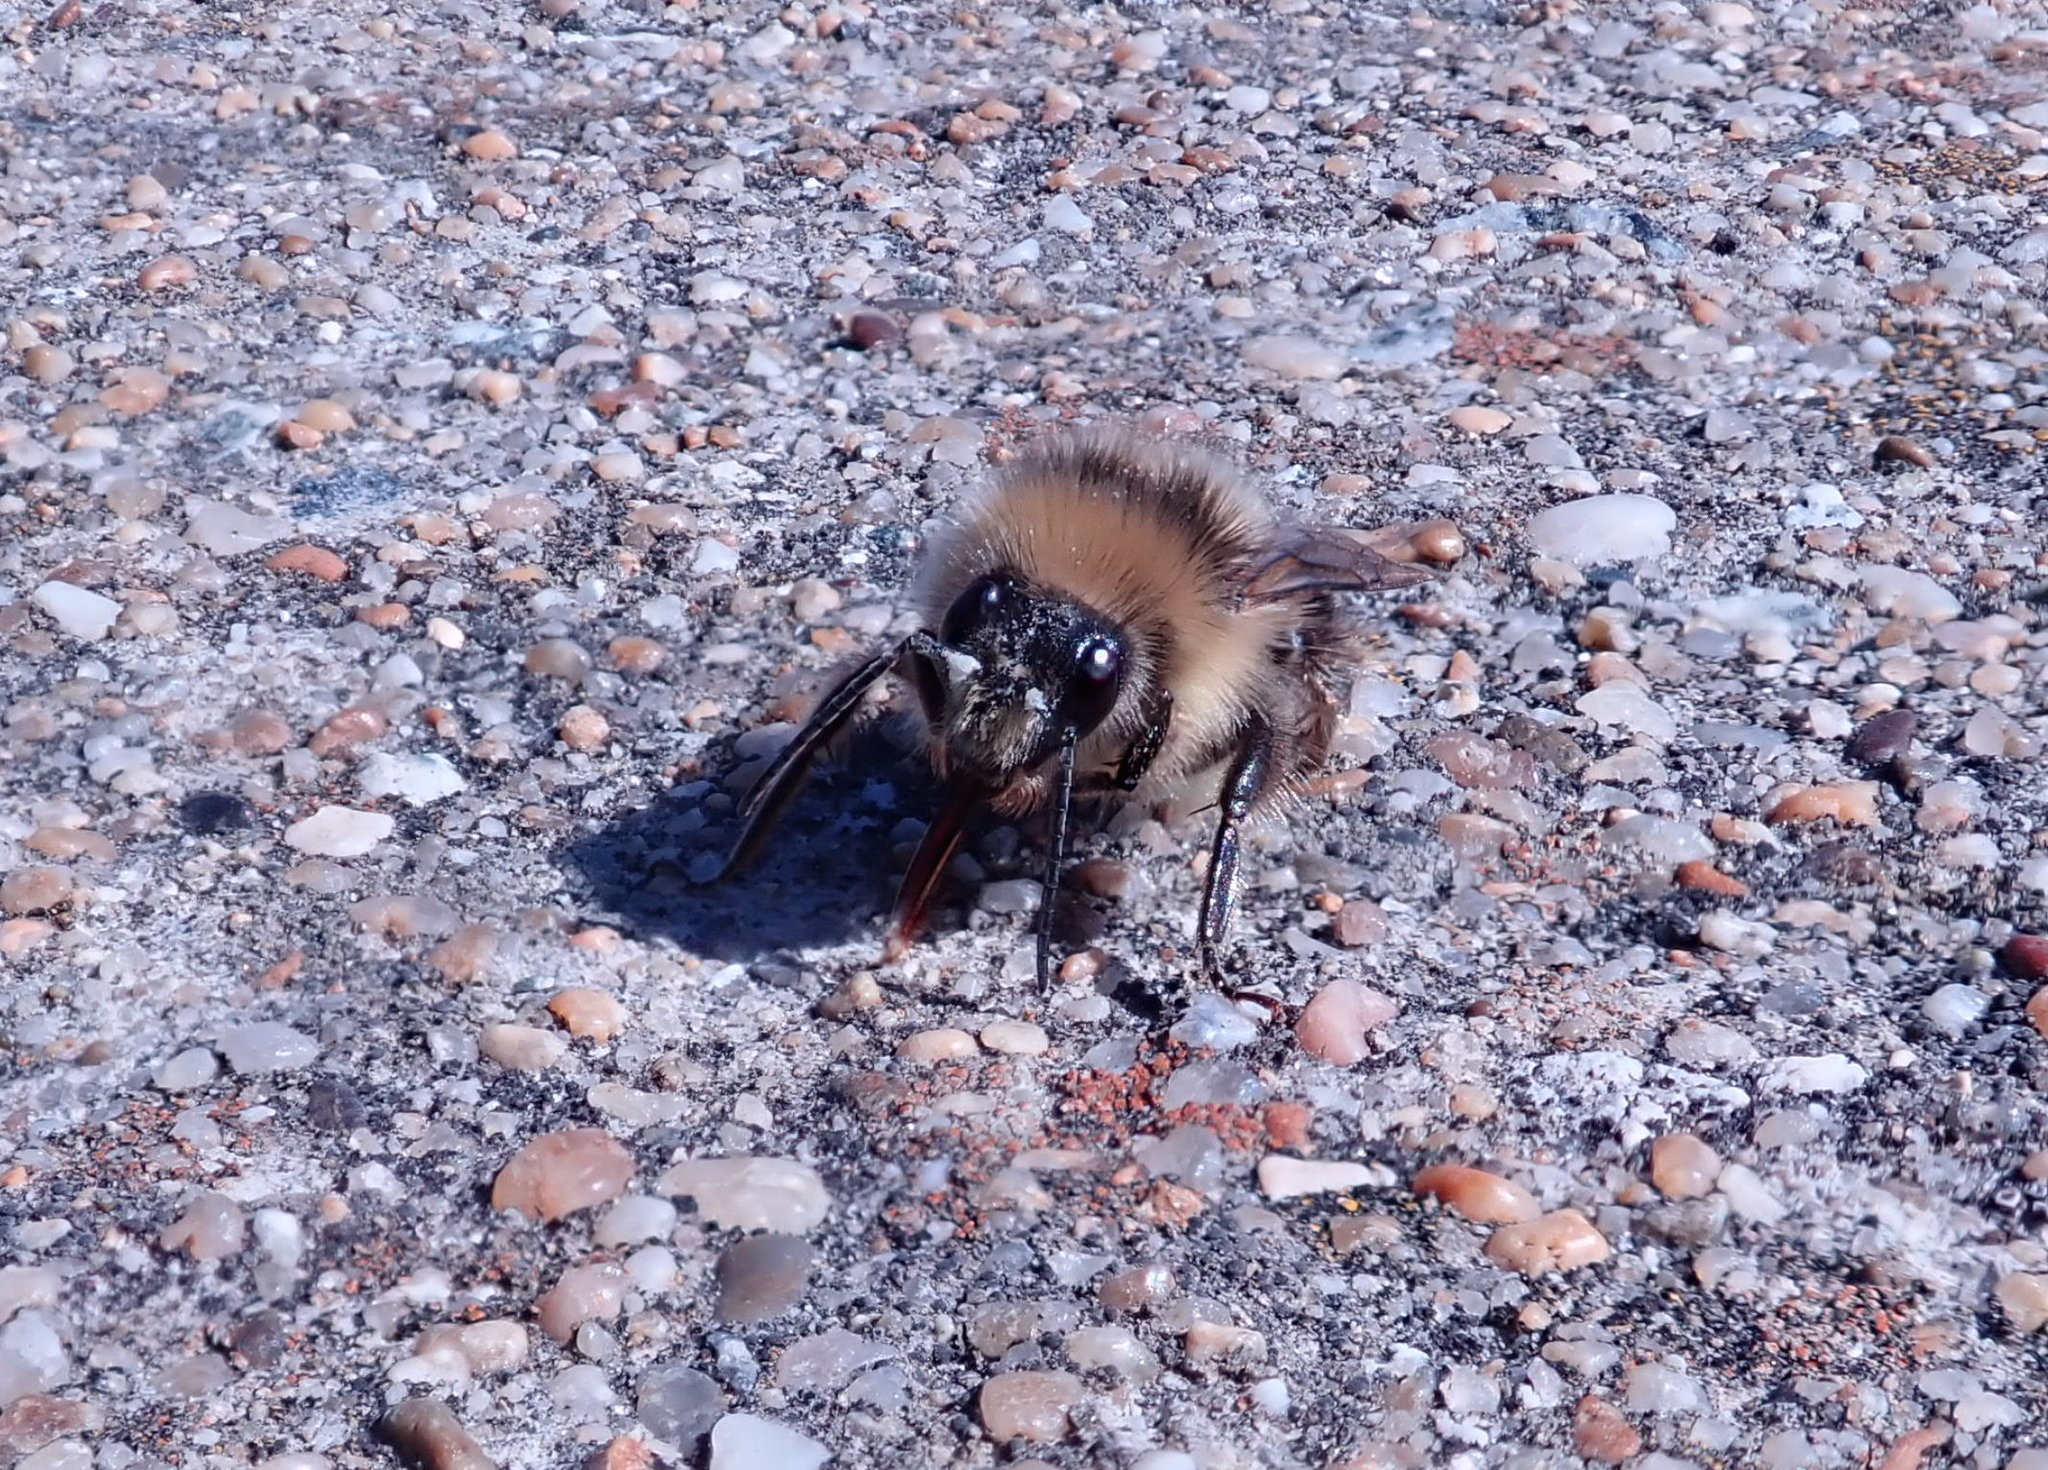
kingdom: Animalia
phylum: Arthropoda
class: Insecta
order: Hymenoptera
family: Apidae
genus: Bombus
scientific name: Bombus melanopygus
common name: Black tail bumble bee
